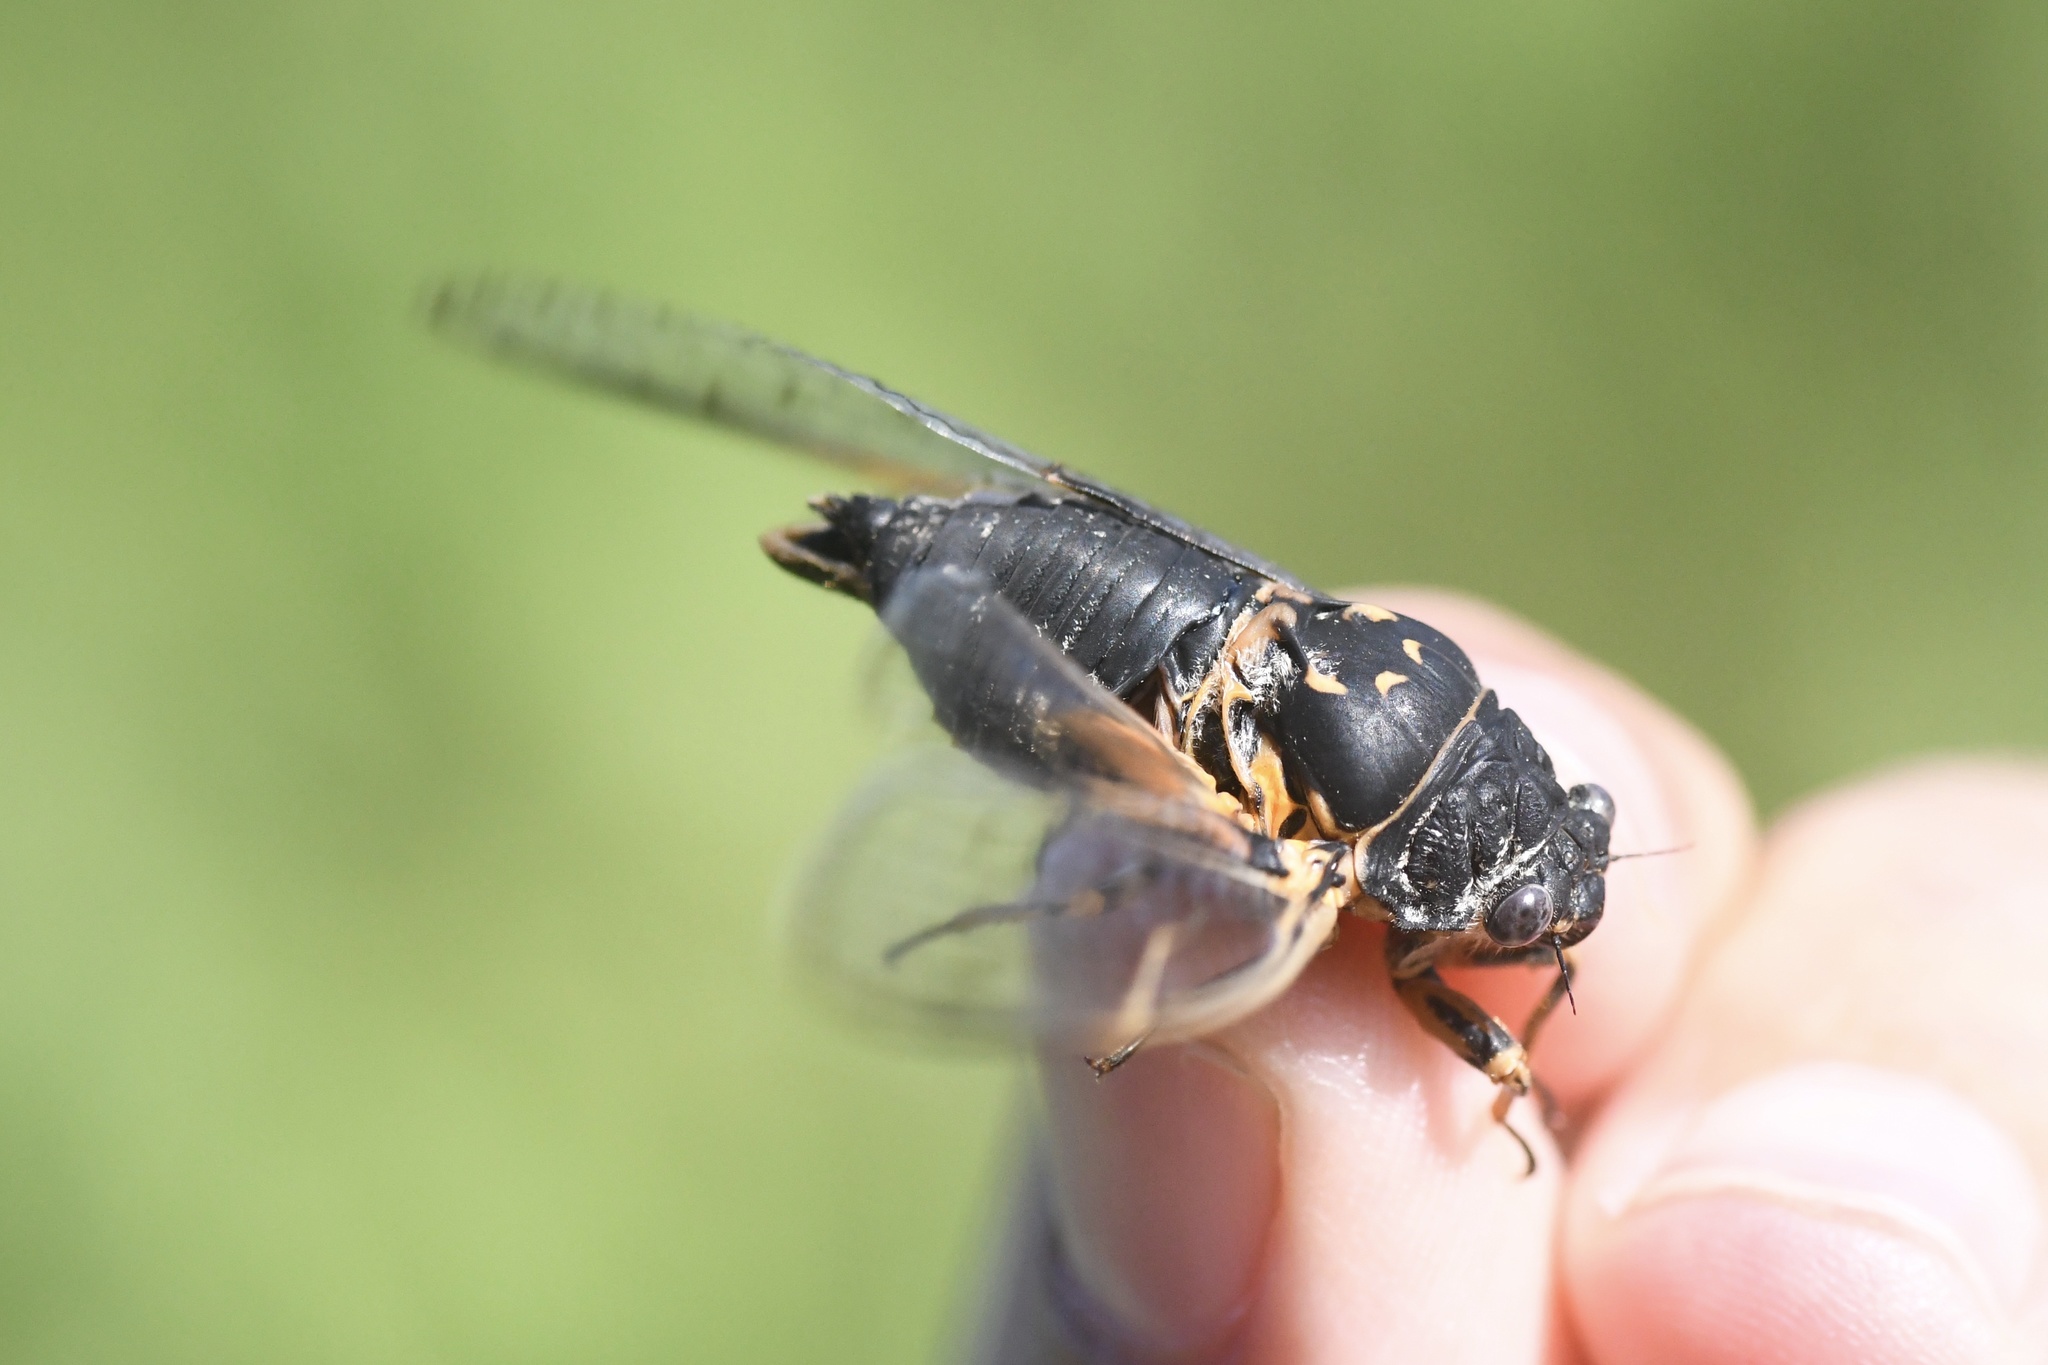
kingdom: Animalia
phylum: Arthropoda
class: Insecta
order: Hemiptera
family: Cicadidae
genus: Okanagana
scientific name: Okanagana canadensis
